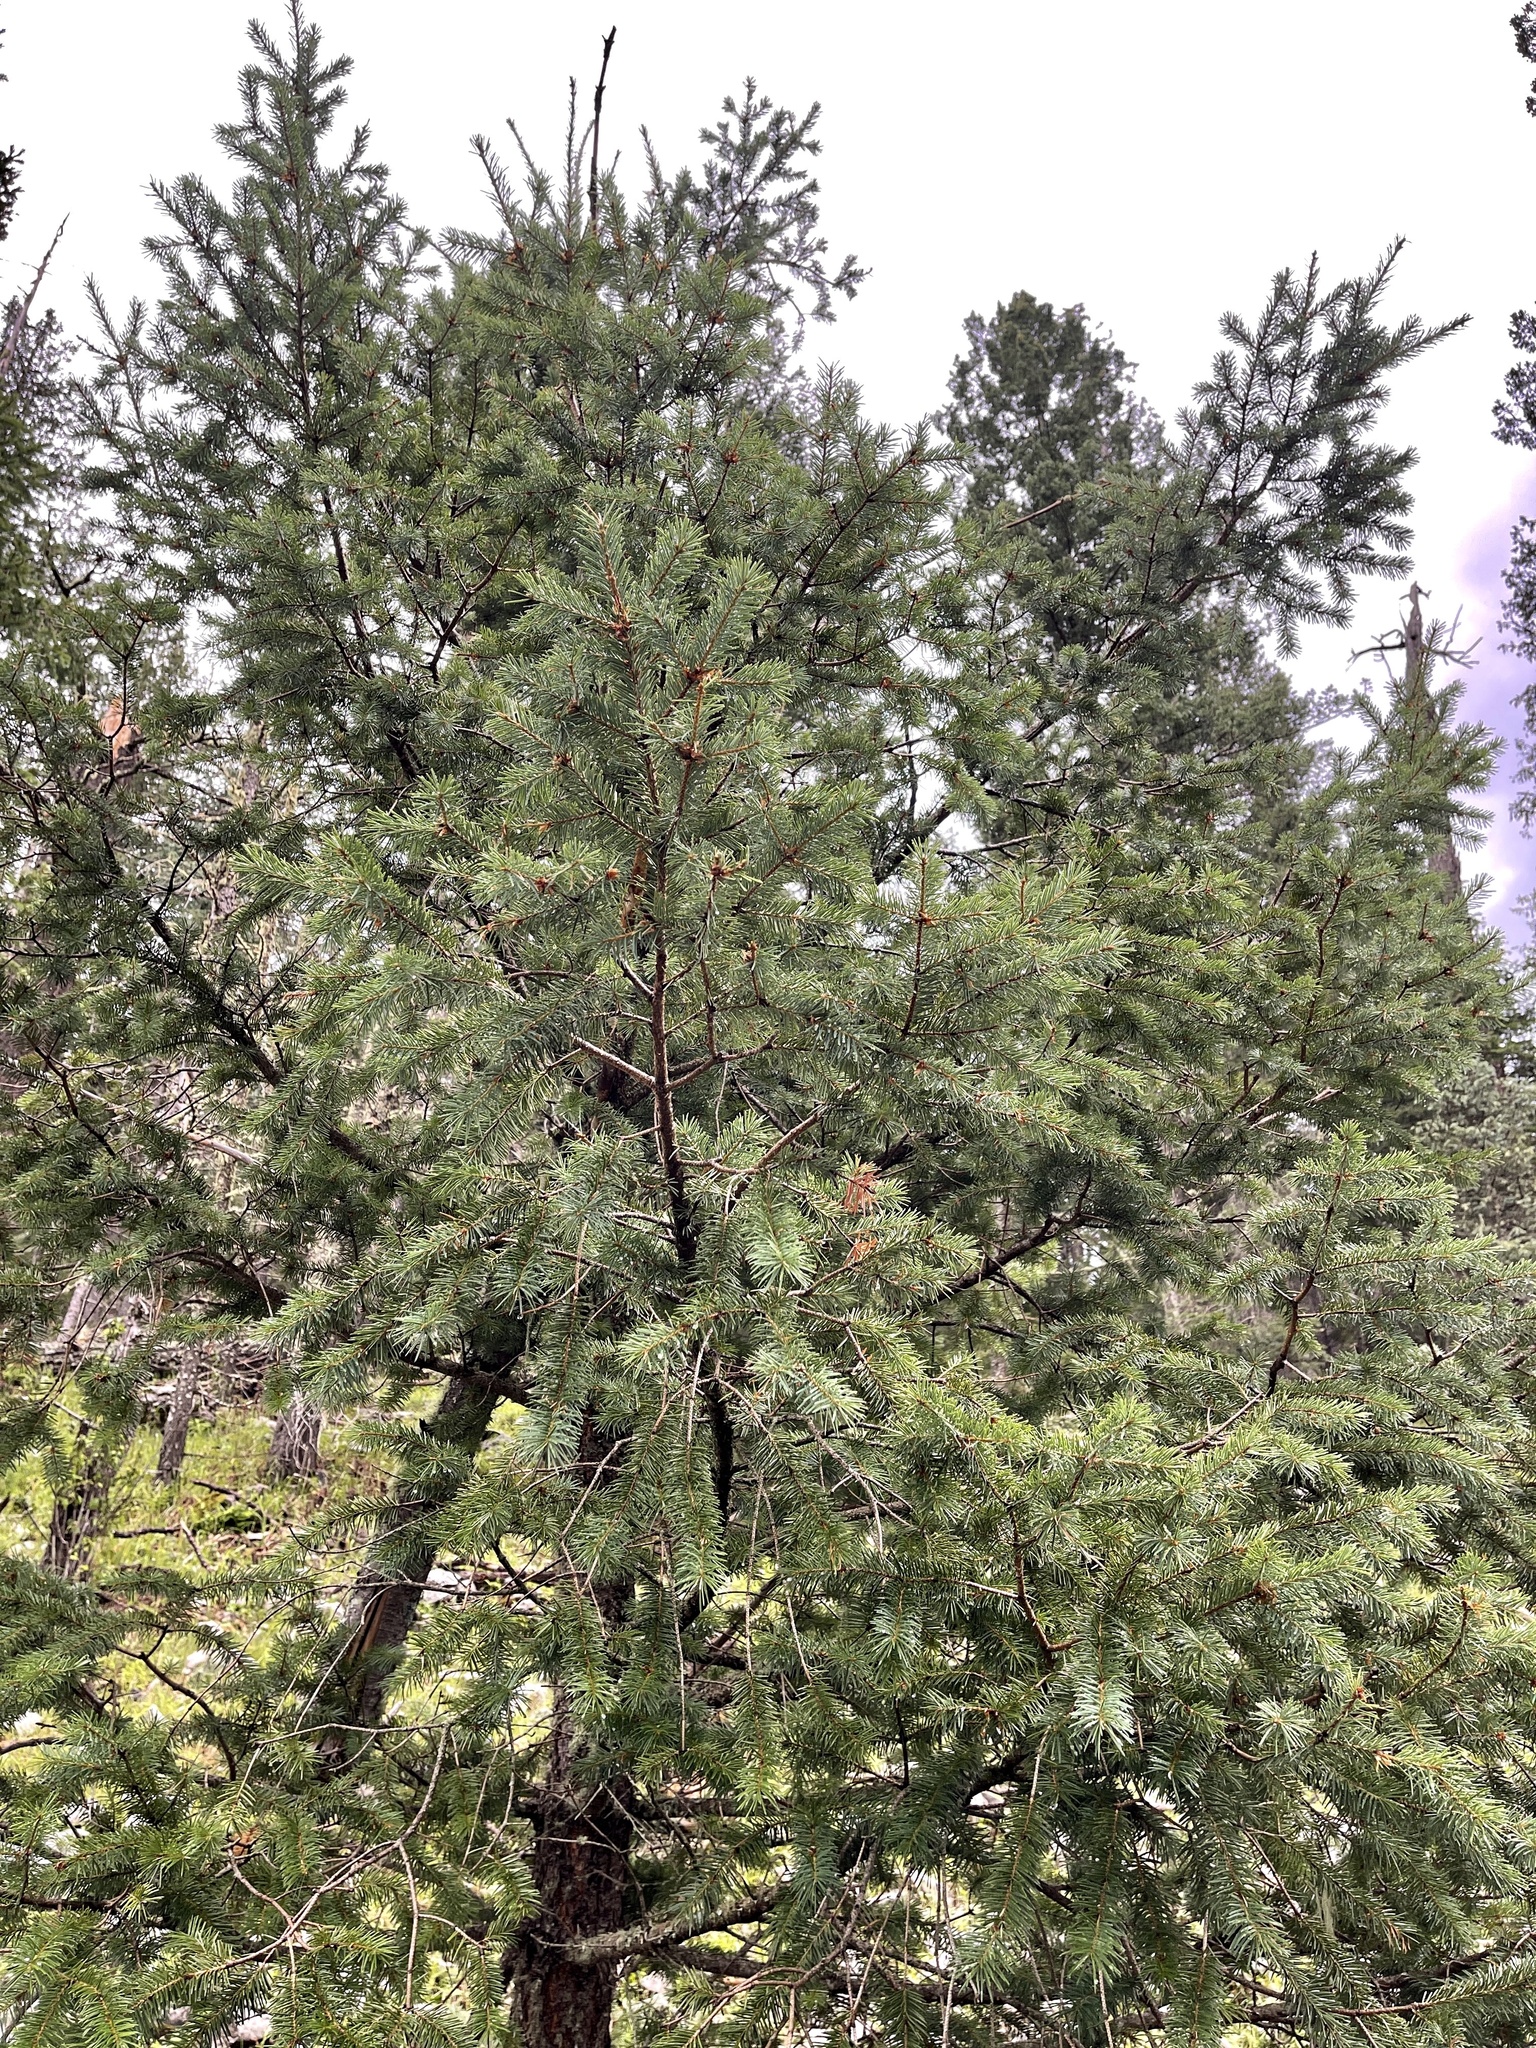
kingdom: Plantae
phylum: Tracheophyta
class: Pinopsida
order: Pinales
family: Pinaceae
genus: Pseudotsuga
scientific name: Pseudotsuga menziesii
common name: Douglas fir
